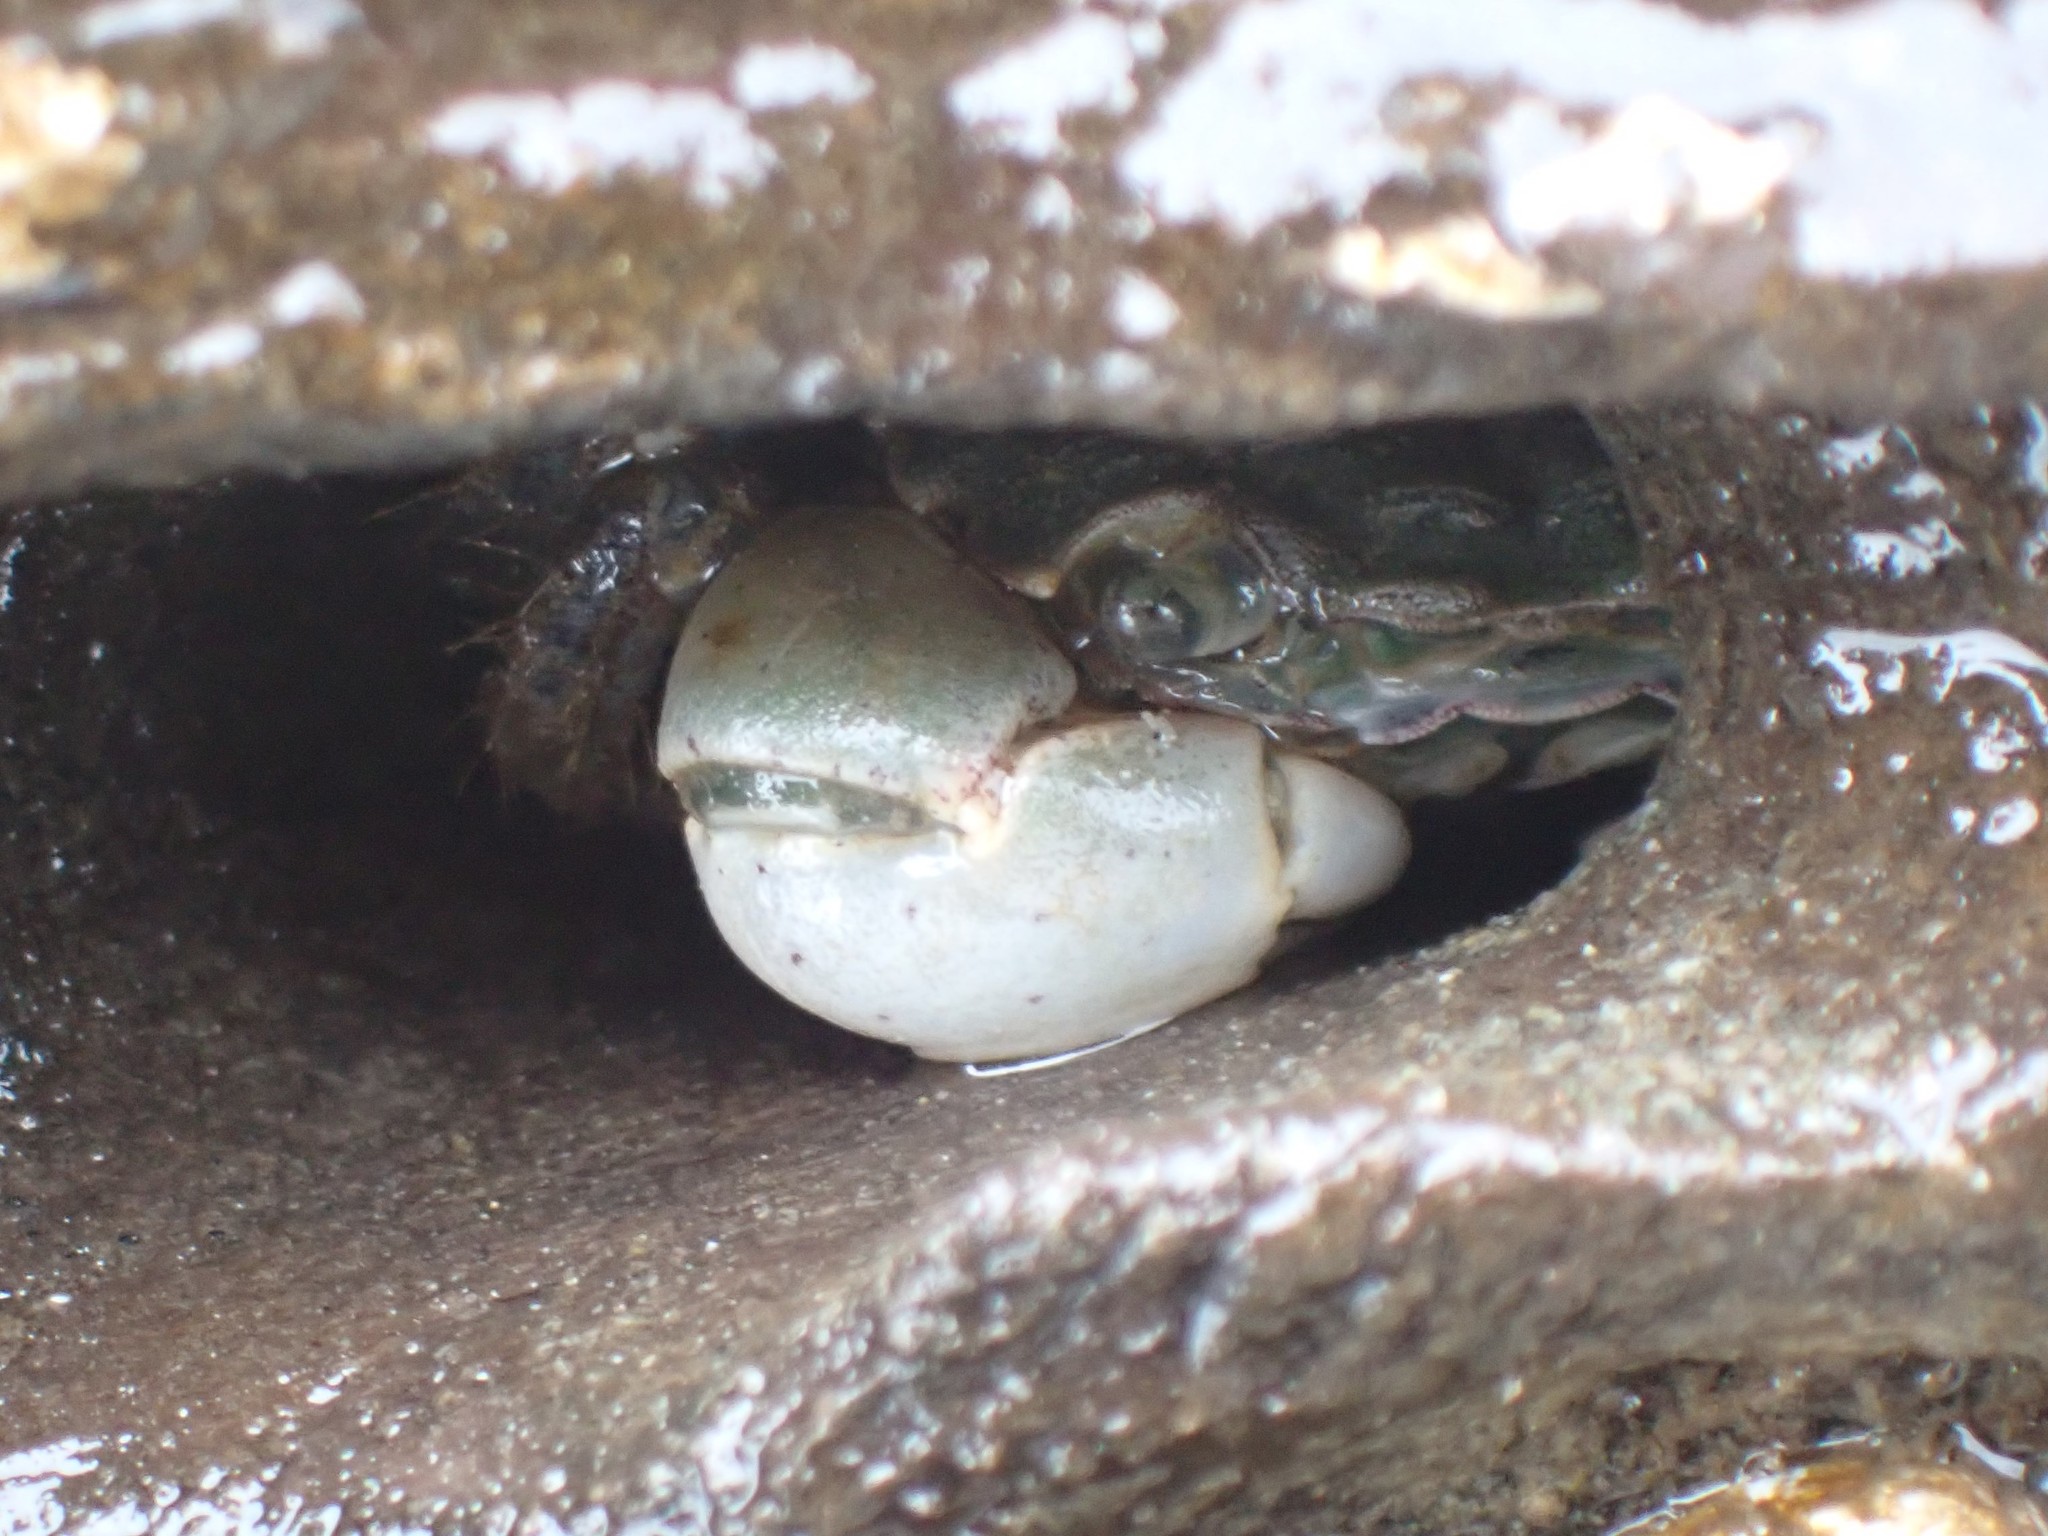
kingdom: Animalia
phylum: Arthropoda
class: Malacostraca
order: Decapoda
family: Varunidae
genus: Hemigrapsus
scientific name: Hemigrapsus oregonensis
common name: Yellow shore crab
